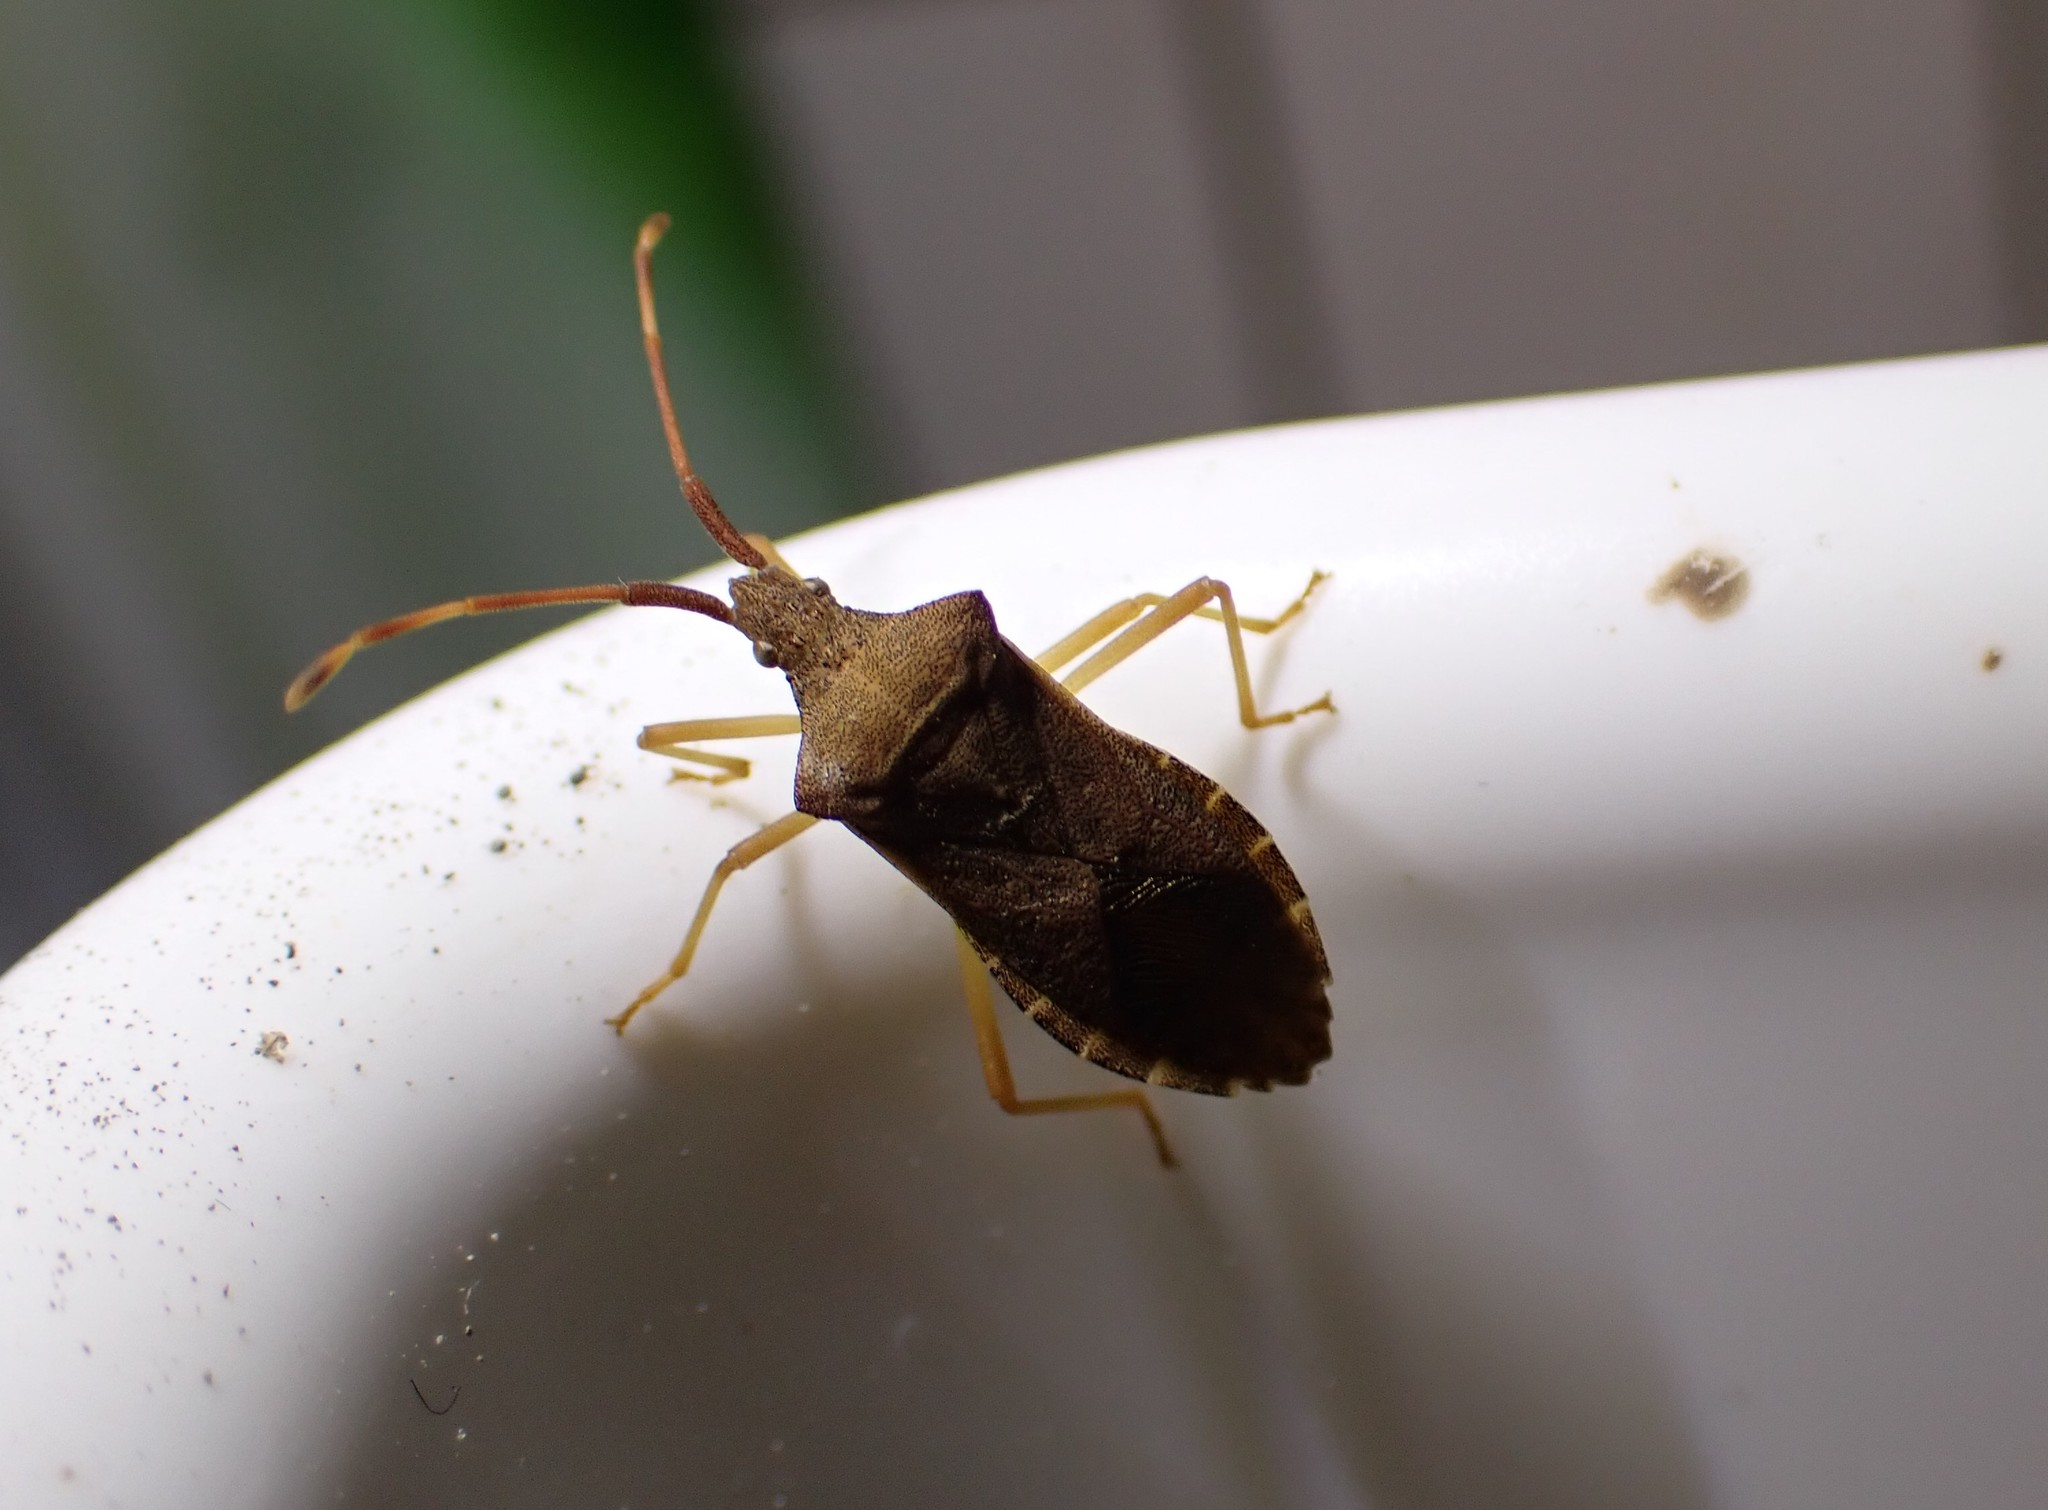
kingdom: Animalia
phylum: Arthropoda
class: Insecta
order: Hemiptera
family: Coreidae
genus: Gonocerus
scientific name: Gonocerus acuteangulatus
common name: Box bug
